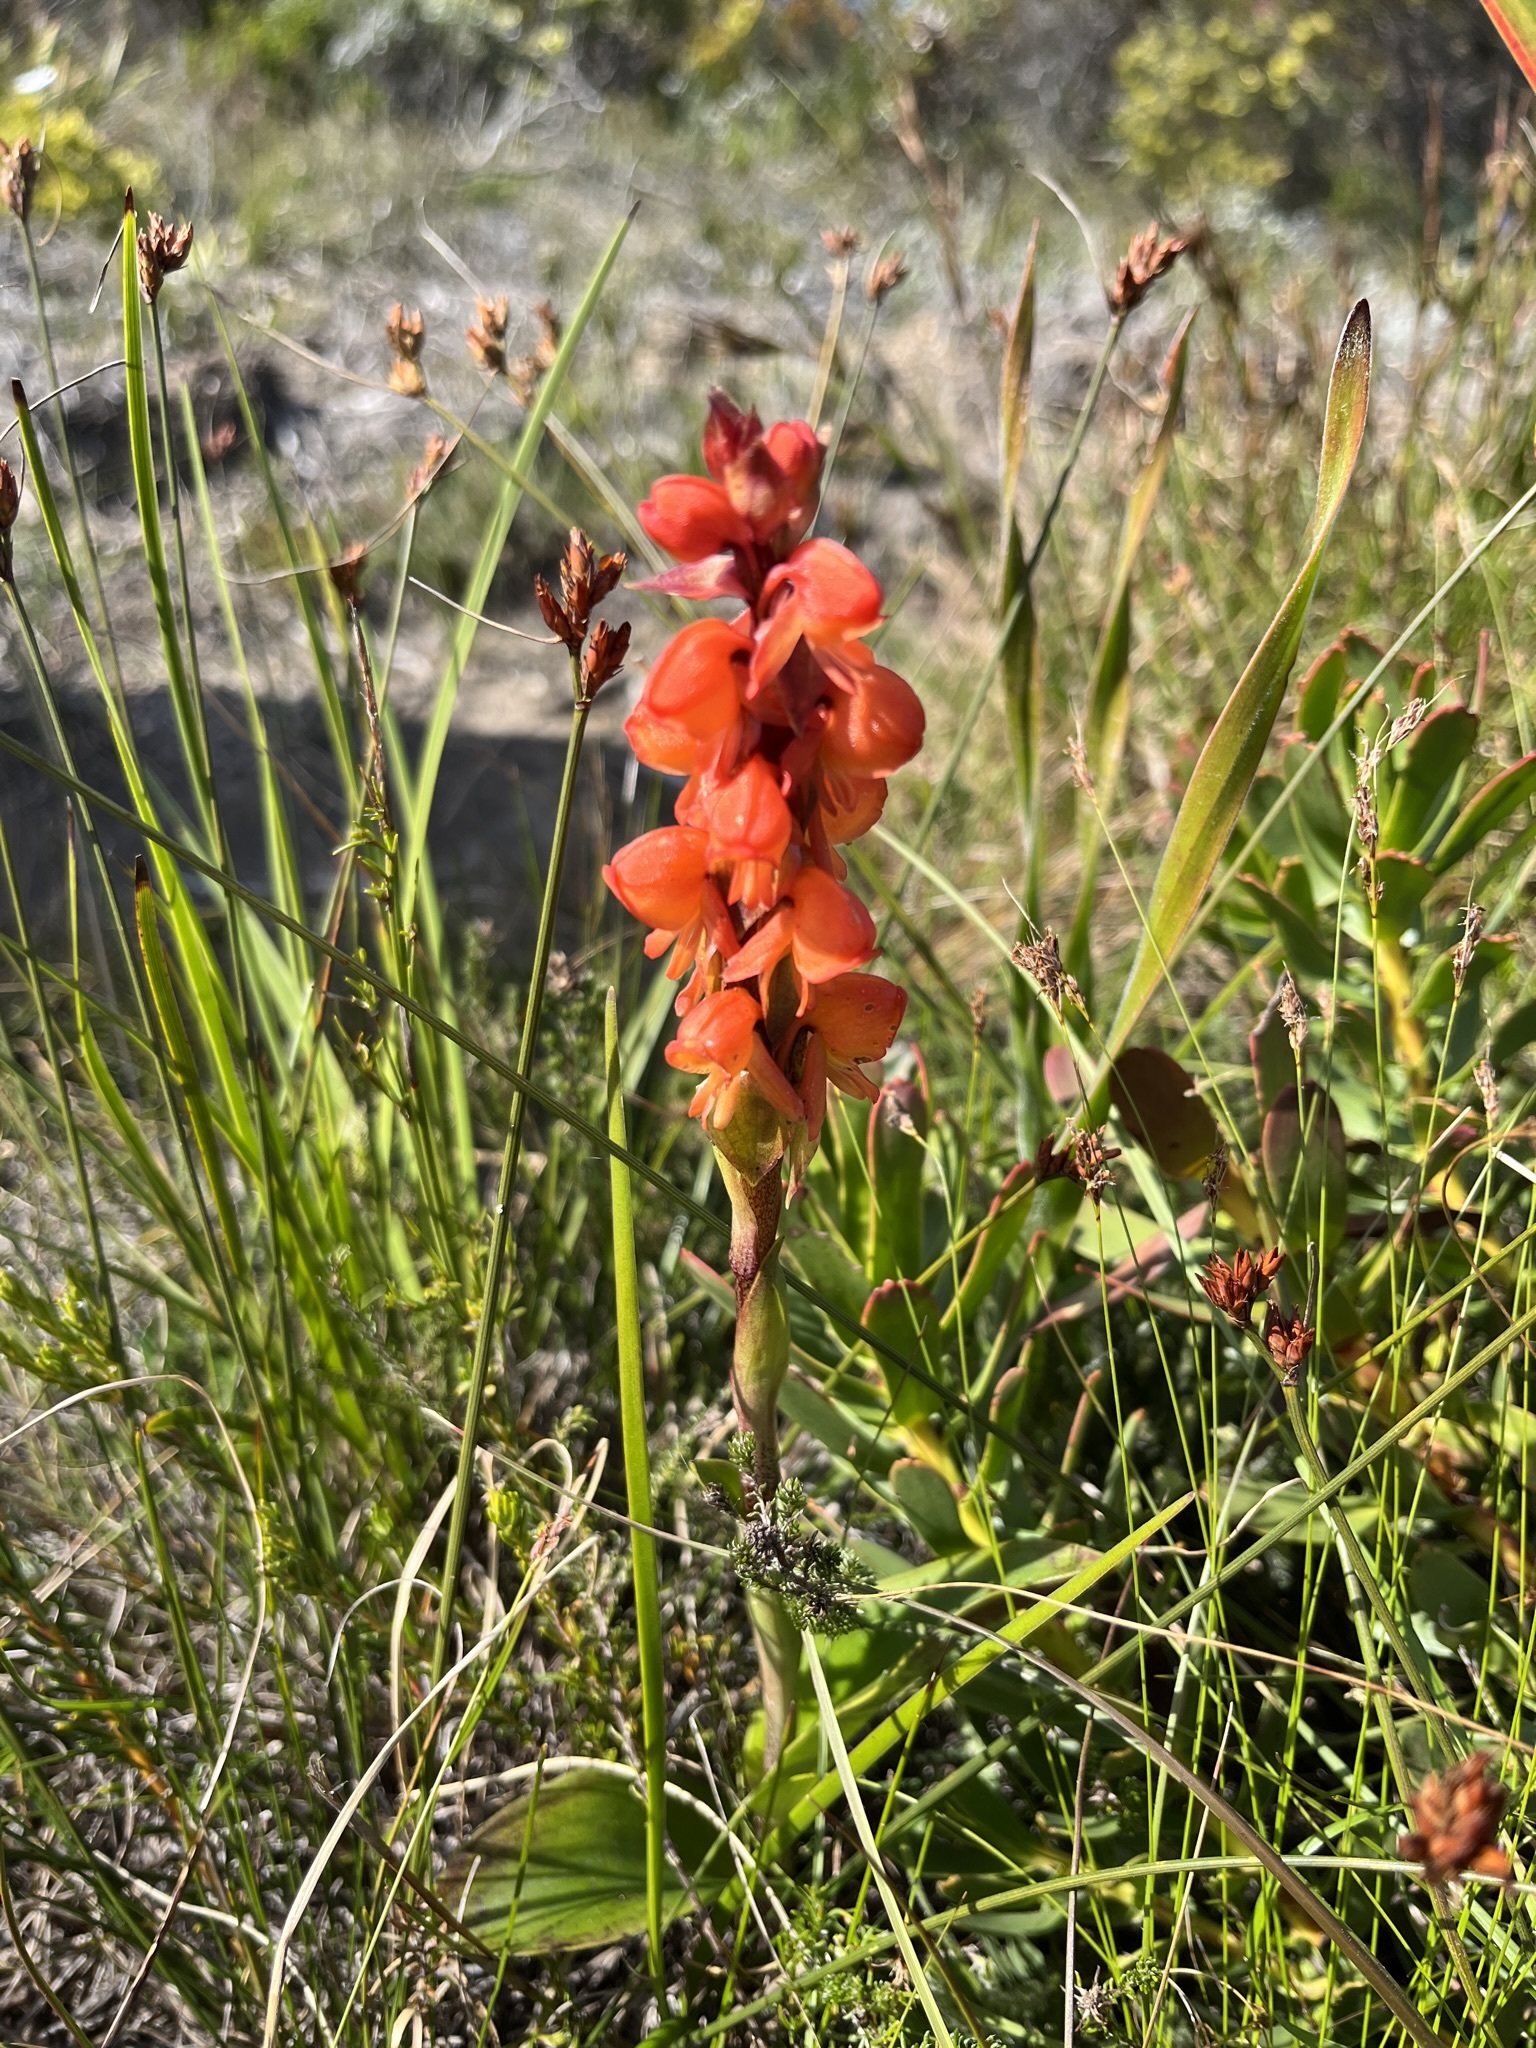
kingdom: Plantae
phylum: Tracheophyta
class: Liliopsida
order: Asparagales
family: Orchidaceae
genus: Satyrium
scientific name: Satyrium coriifolium
